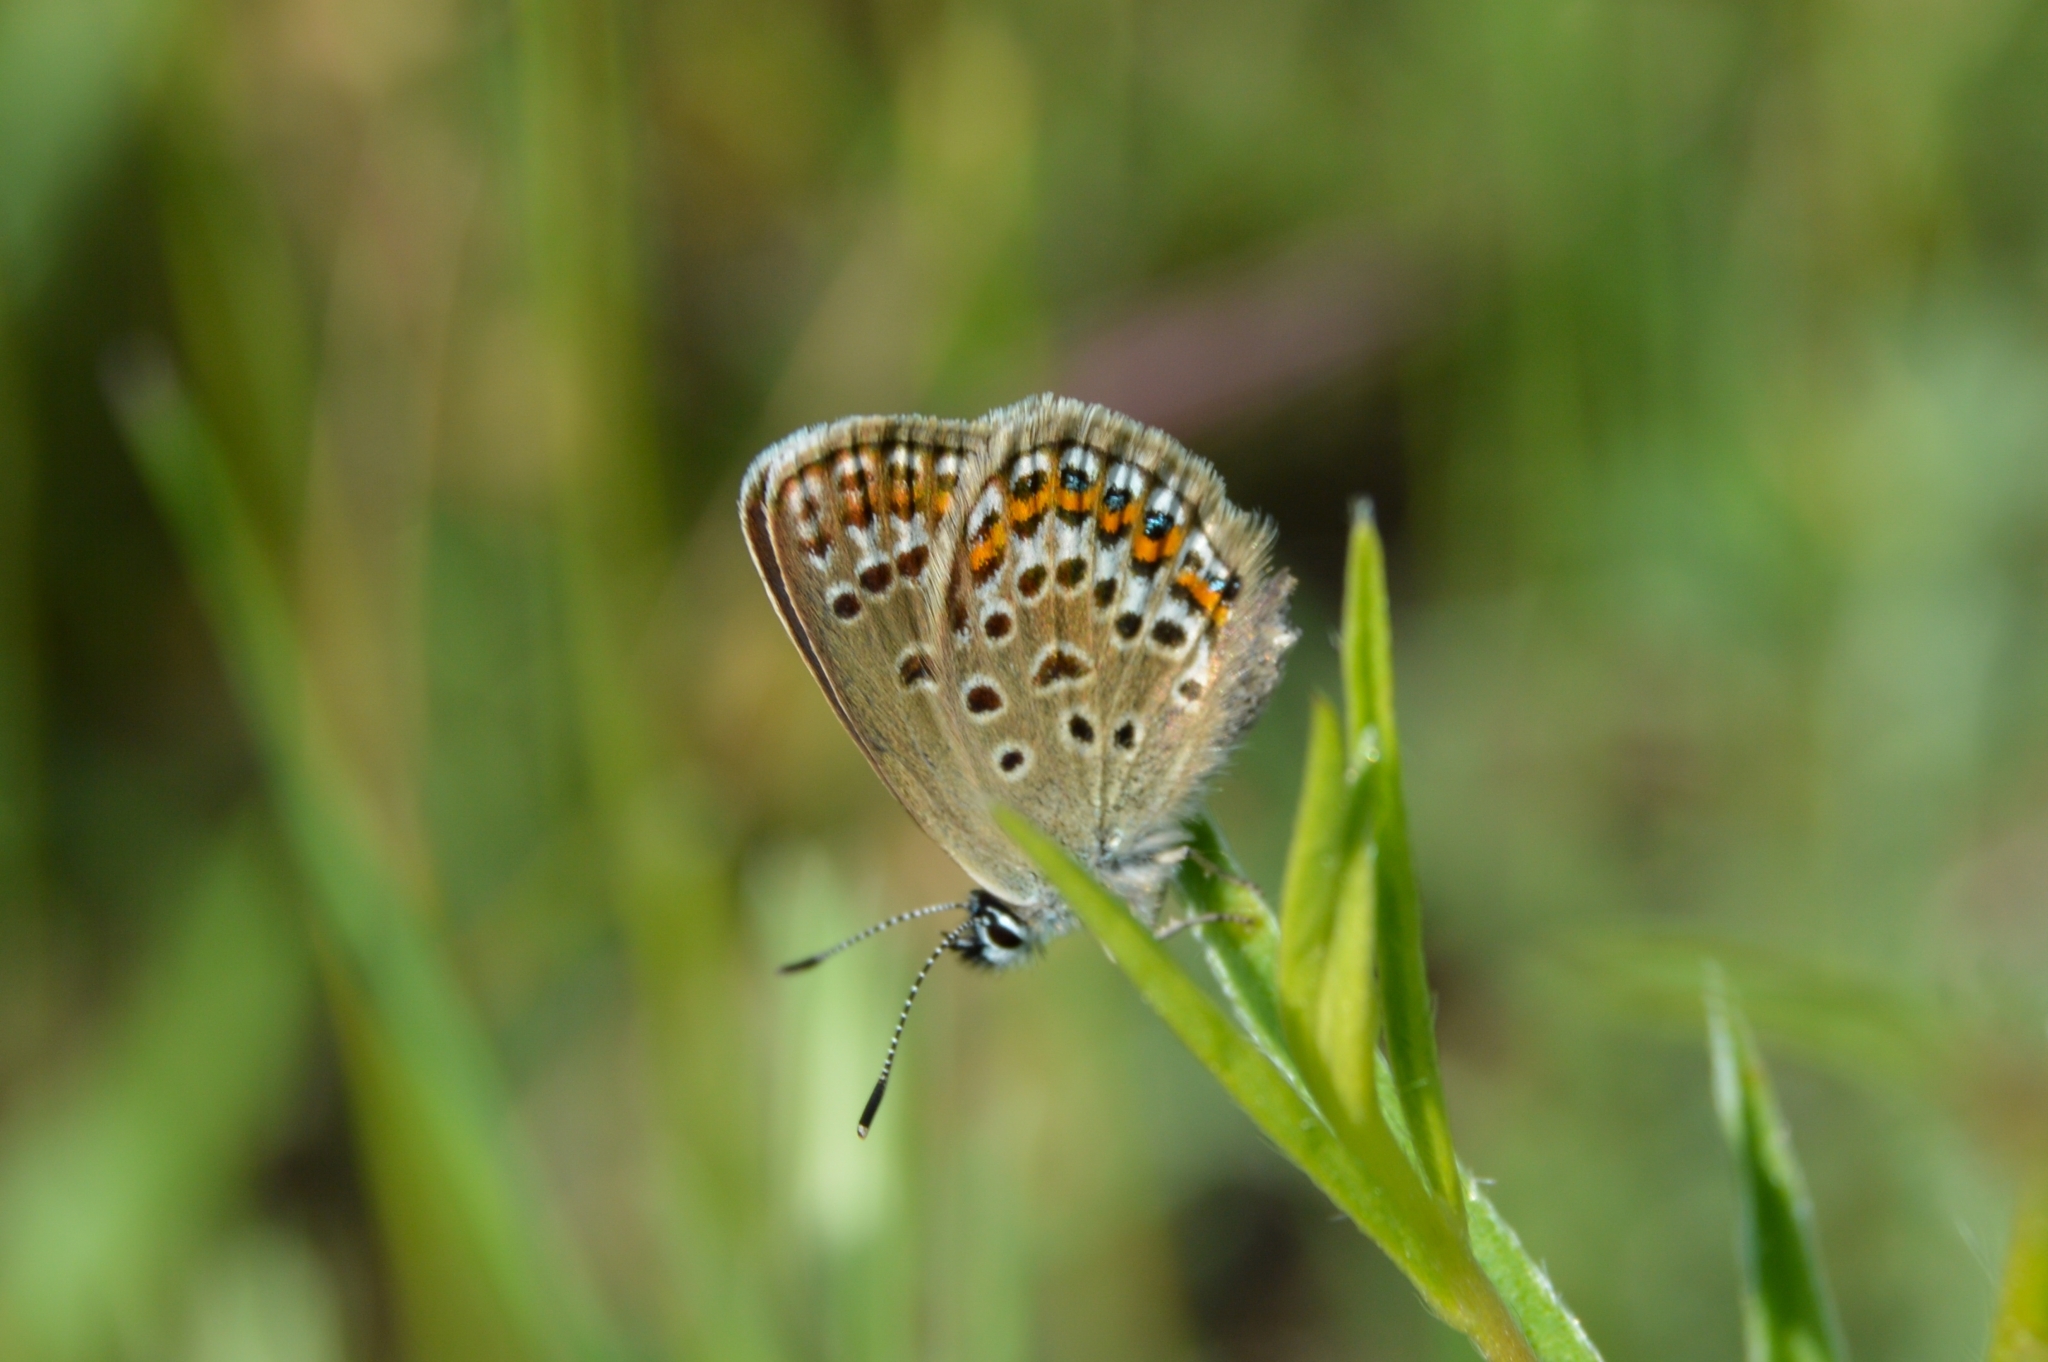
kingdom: Animalia
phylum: Arthropoda
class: Insecta
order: Lepidoptera
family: Lycaenidae
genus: Plebejus
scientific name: Plebejus argus
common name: Silver-studded blue
